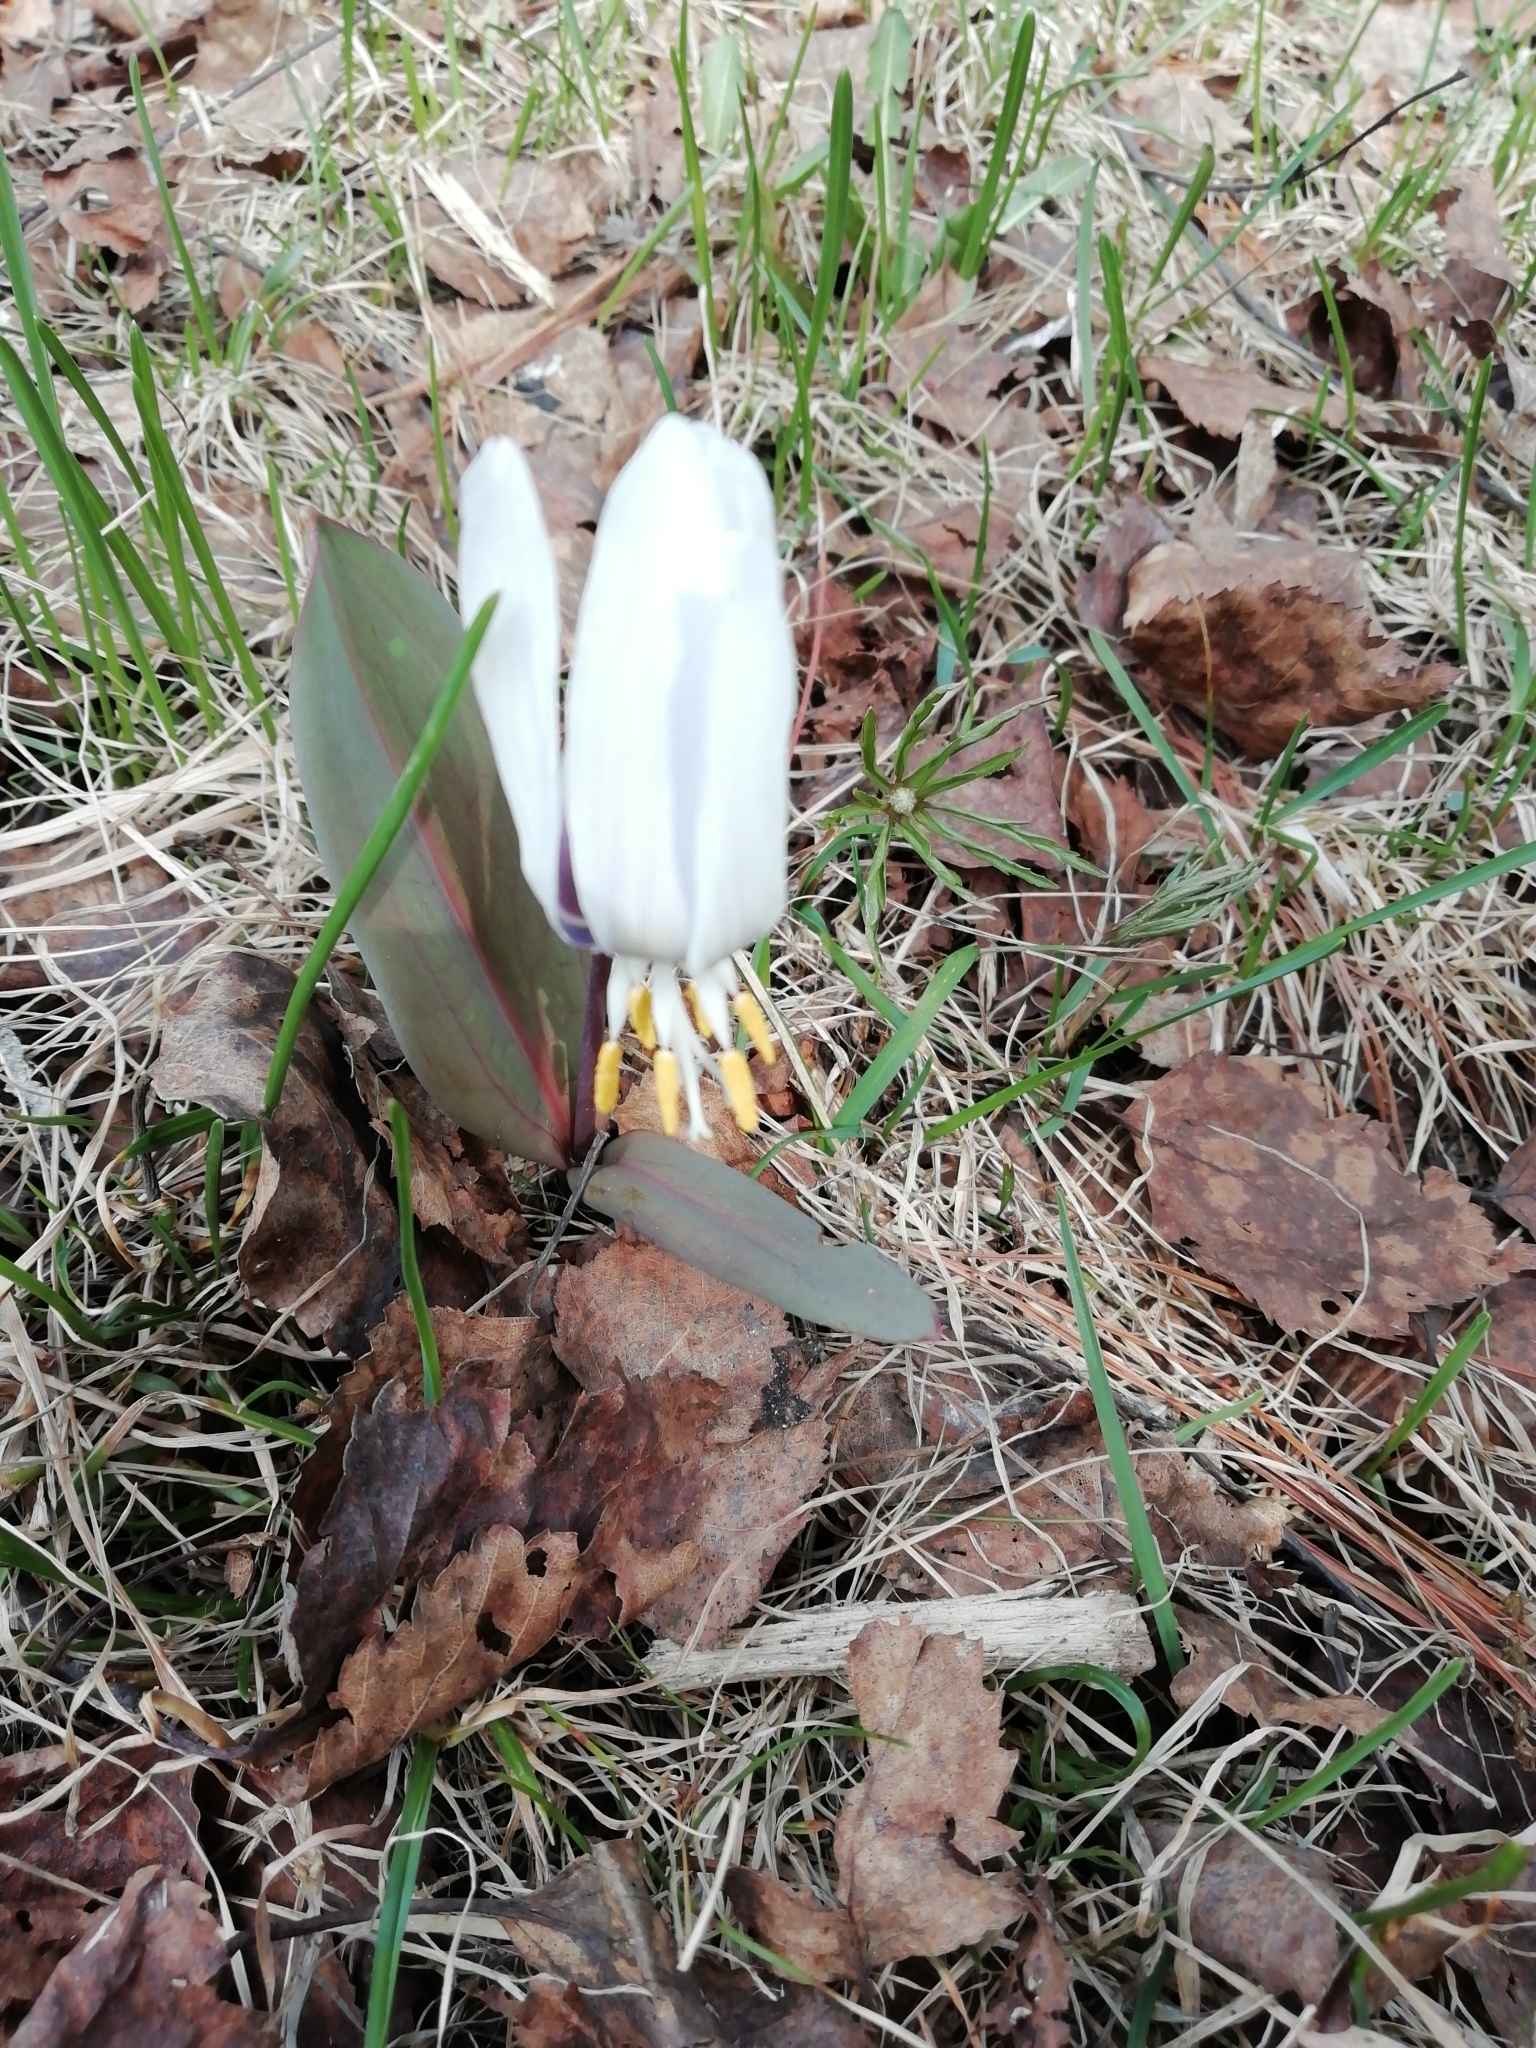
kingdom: Plantae
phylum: Tracheophyta
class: Liliopsida
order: Liliales
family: Liliaceae
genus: Erythronium
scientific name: Erythronium sibiricum
